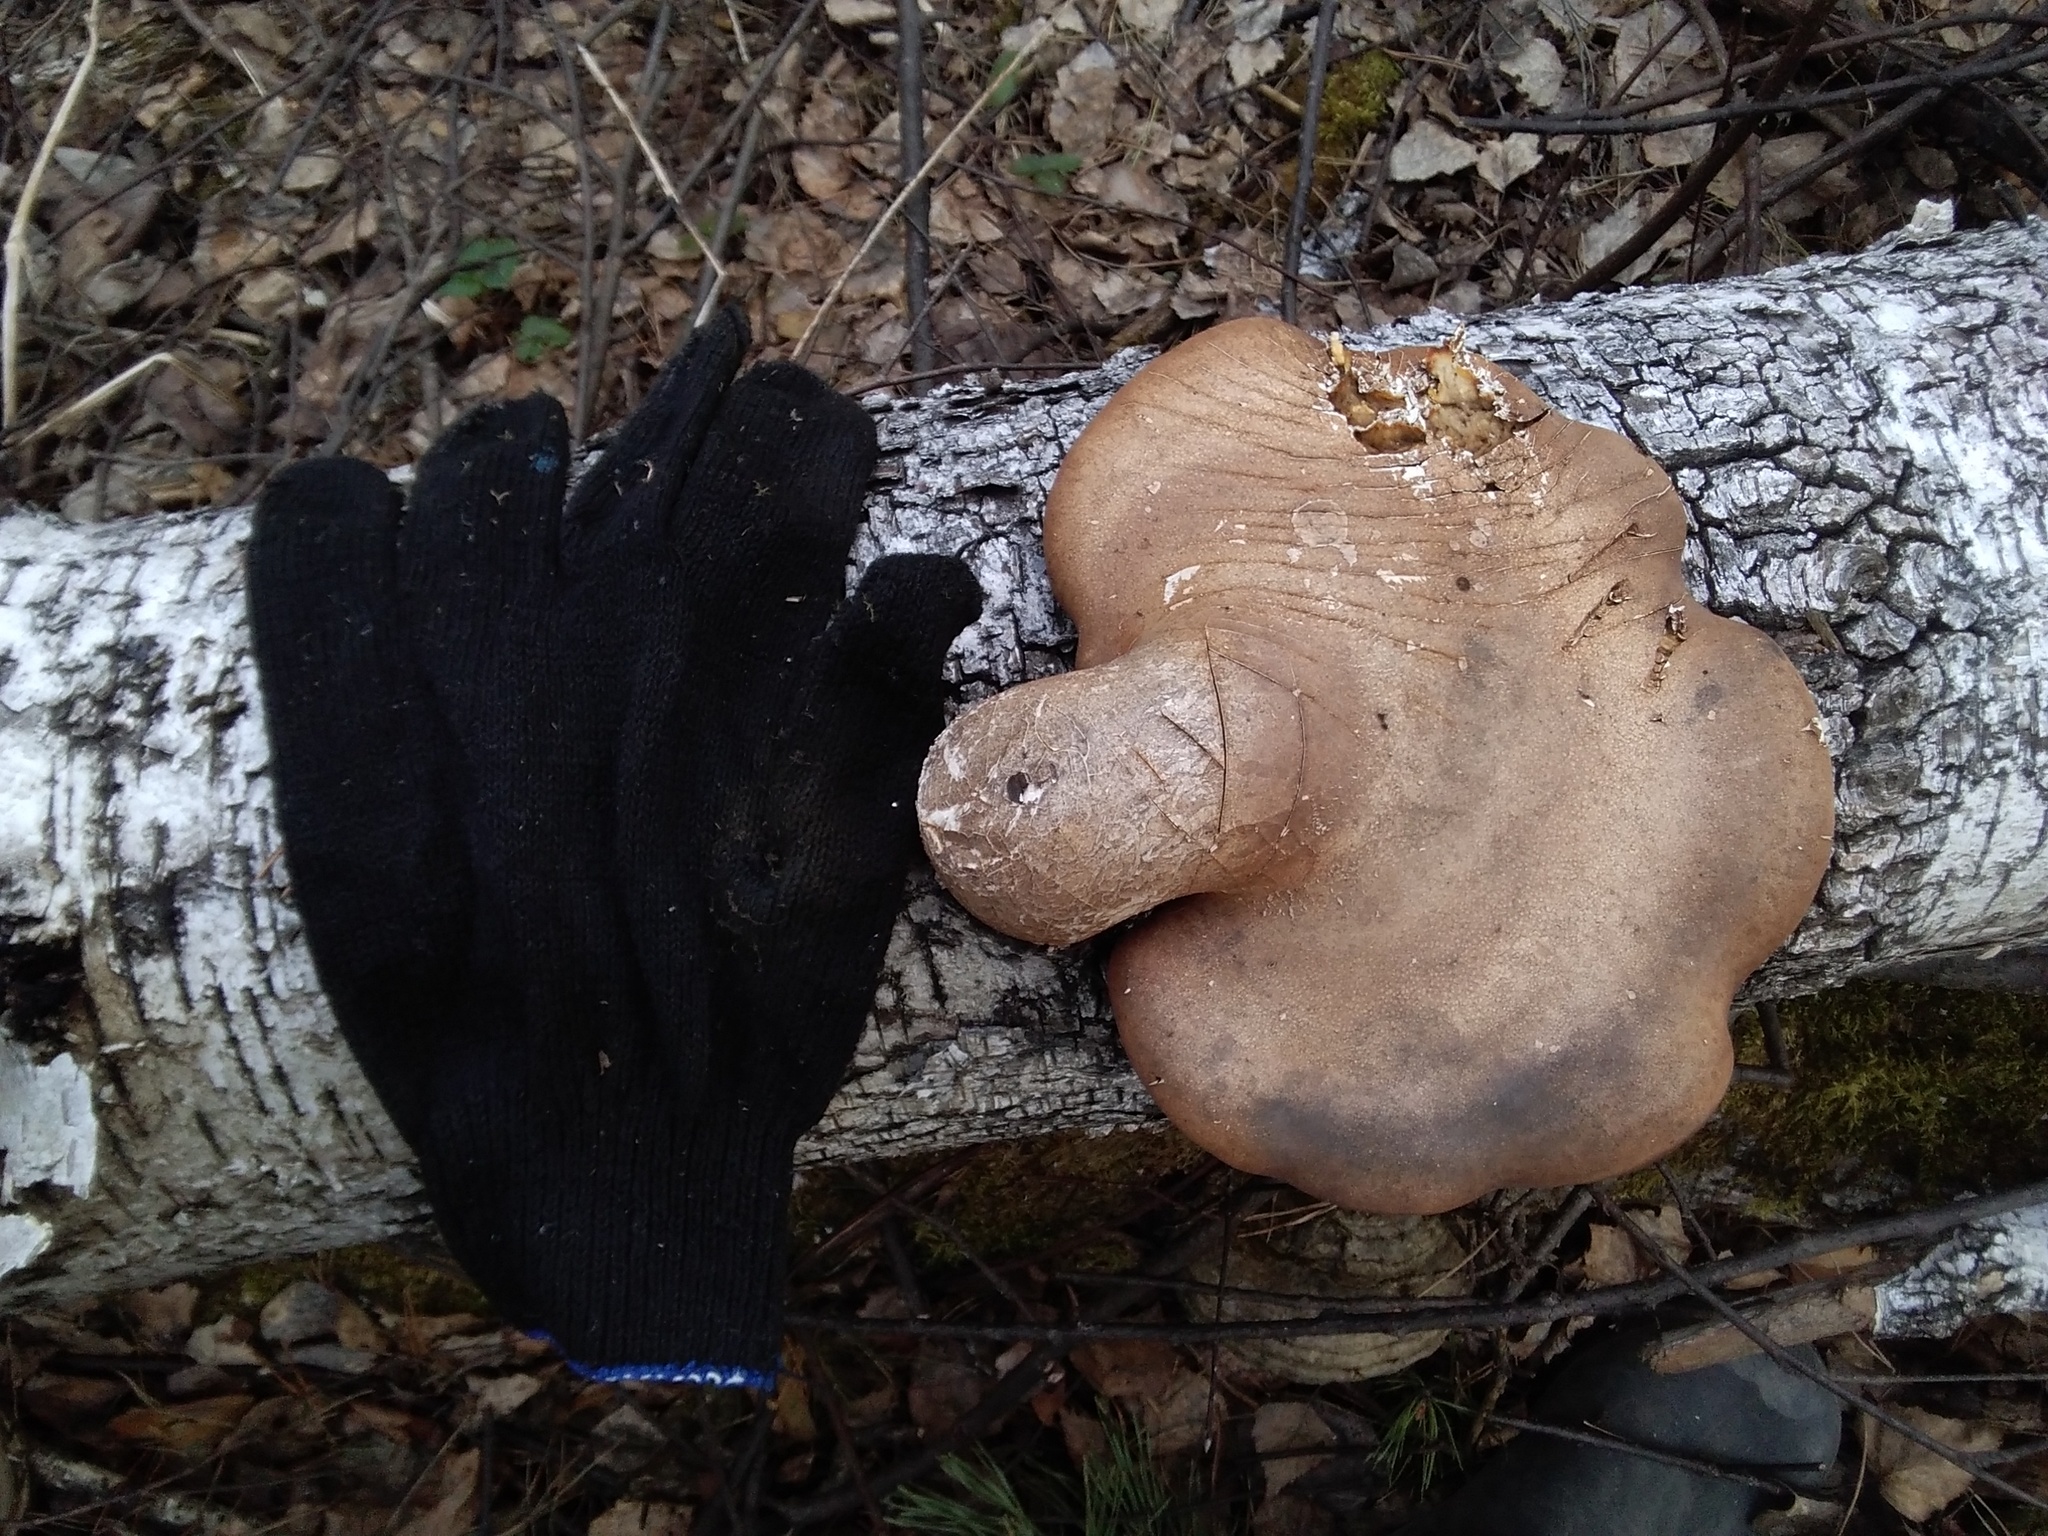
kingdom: Fungi
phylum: Basidiomycota
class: Agaricomycetes
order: Polyporales
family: Fomitopsidaceae
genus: Fomitopsis
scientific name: Fomitopsis betulina
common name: Birch polypore
